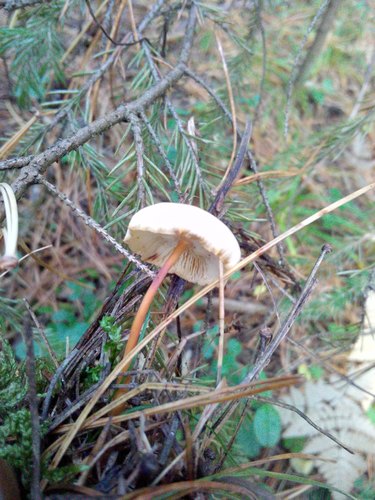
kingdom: Fungi
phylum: Basidiomycota
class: Agaricomycetes
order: Agaricales
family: Omphalotaceae
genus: Gymnopus
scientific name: Gymnopus dryophilus
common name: Penny top
